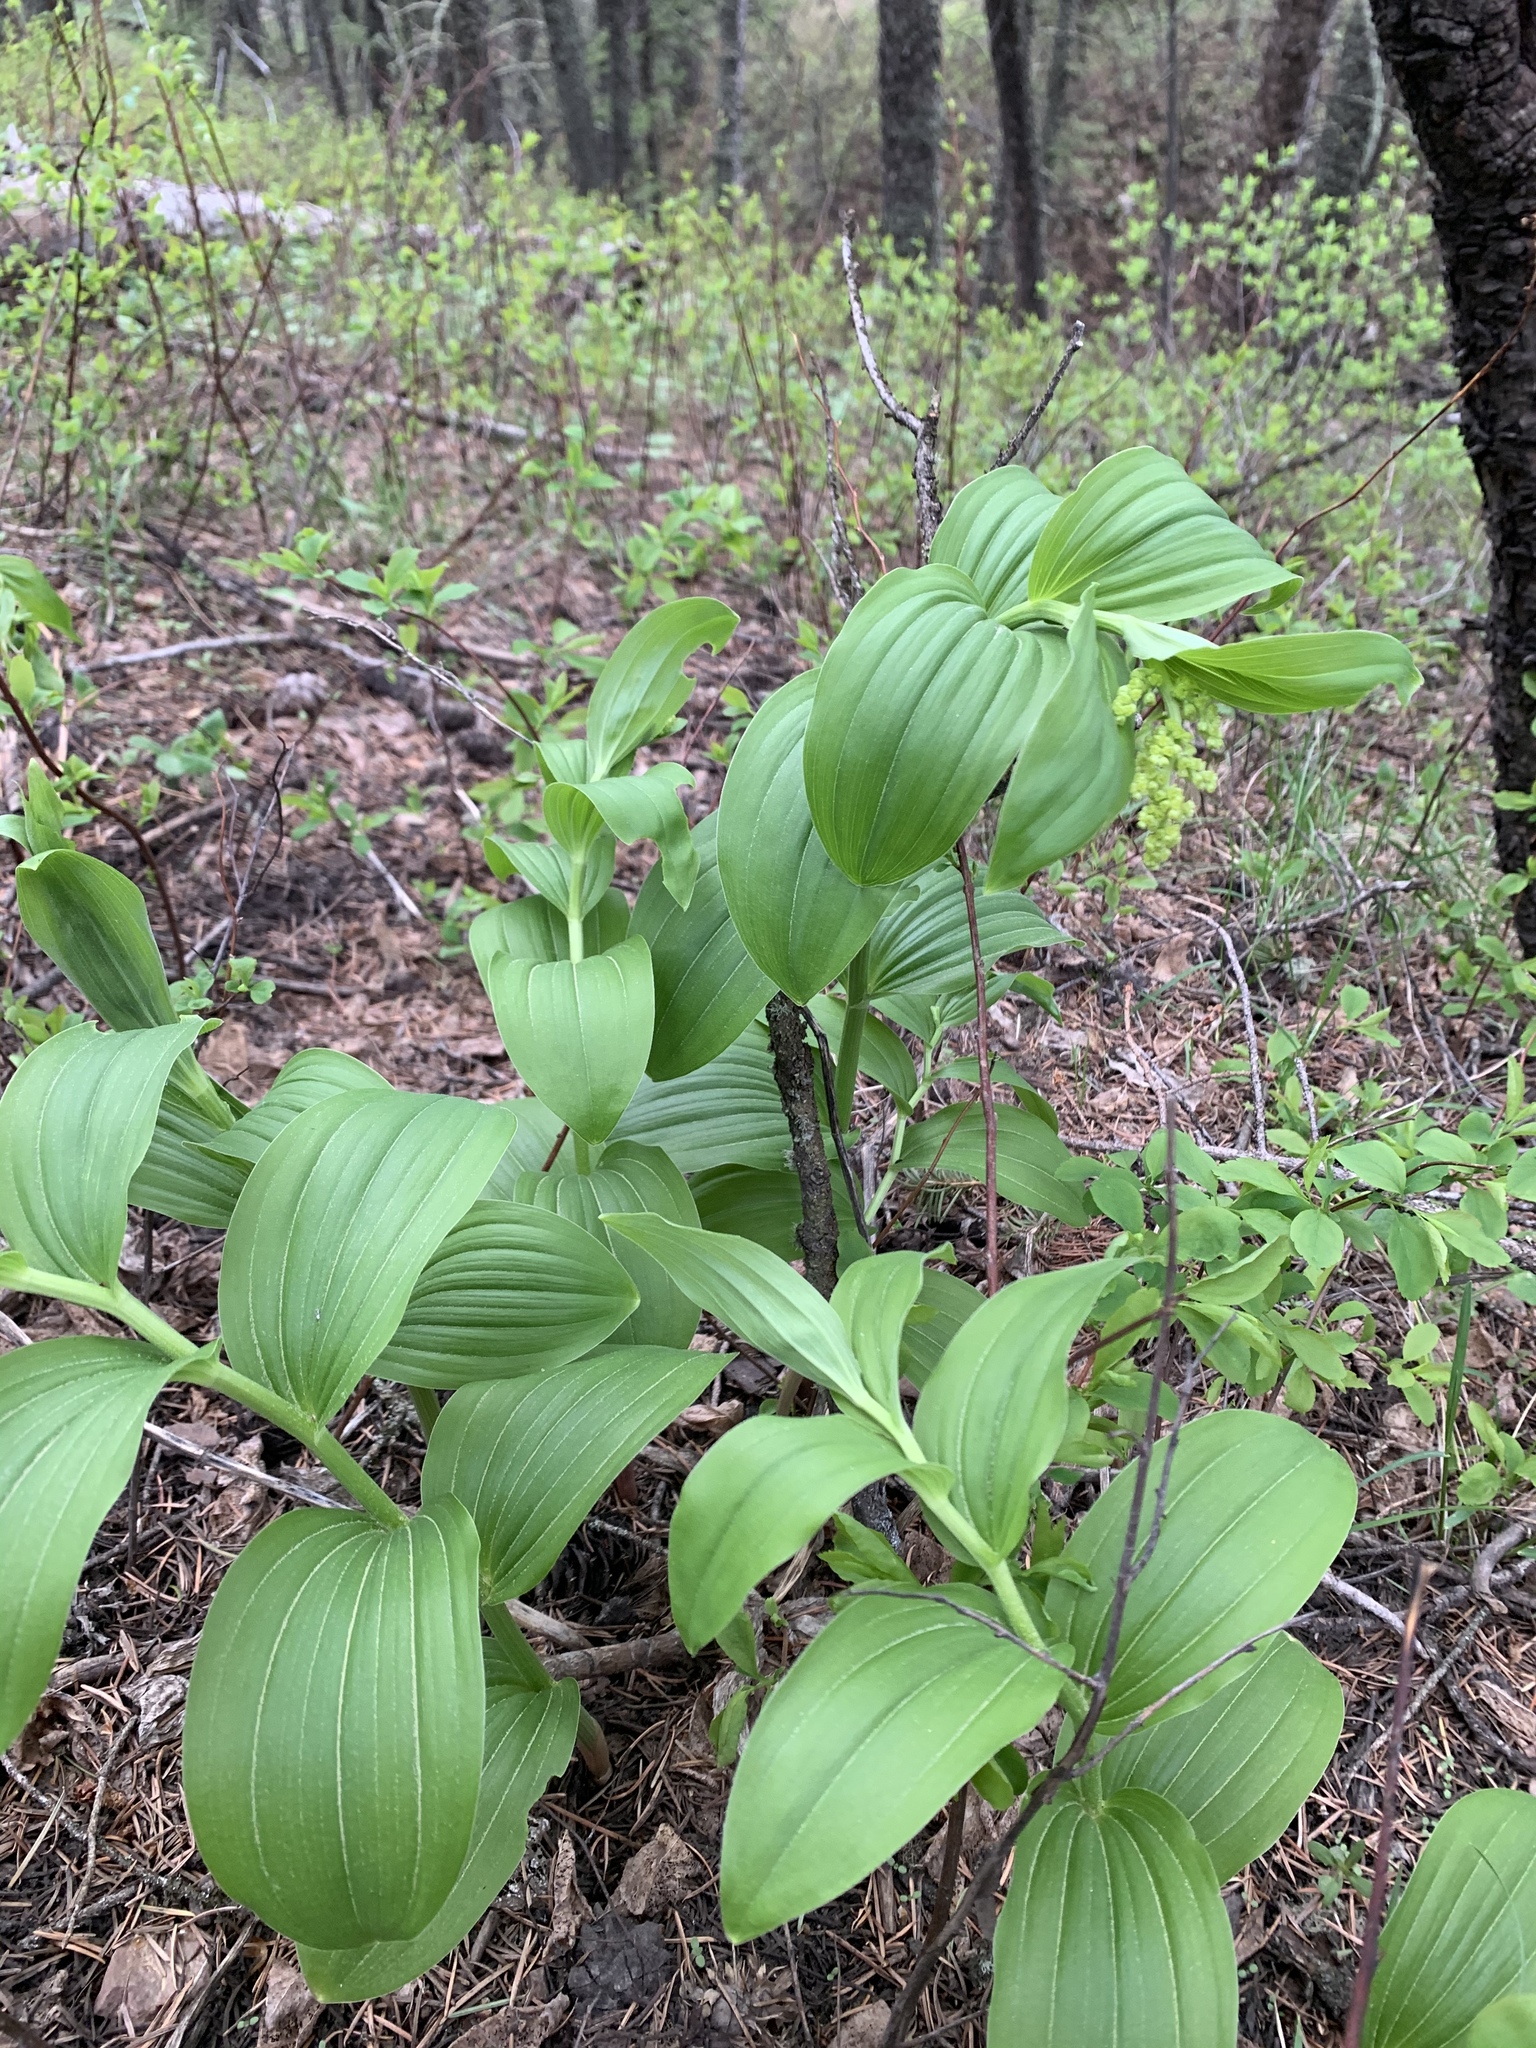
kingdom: Plantae
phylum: Tracheophyta
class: Liliopsida
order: Asparagales
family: Asparagaceae
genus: Maianthemum
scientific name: Maianthemum racemosum
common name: False spikenard
